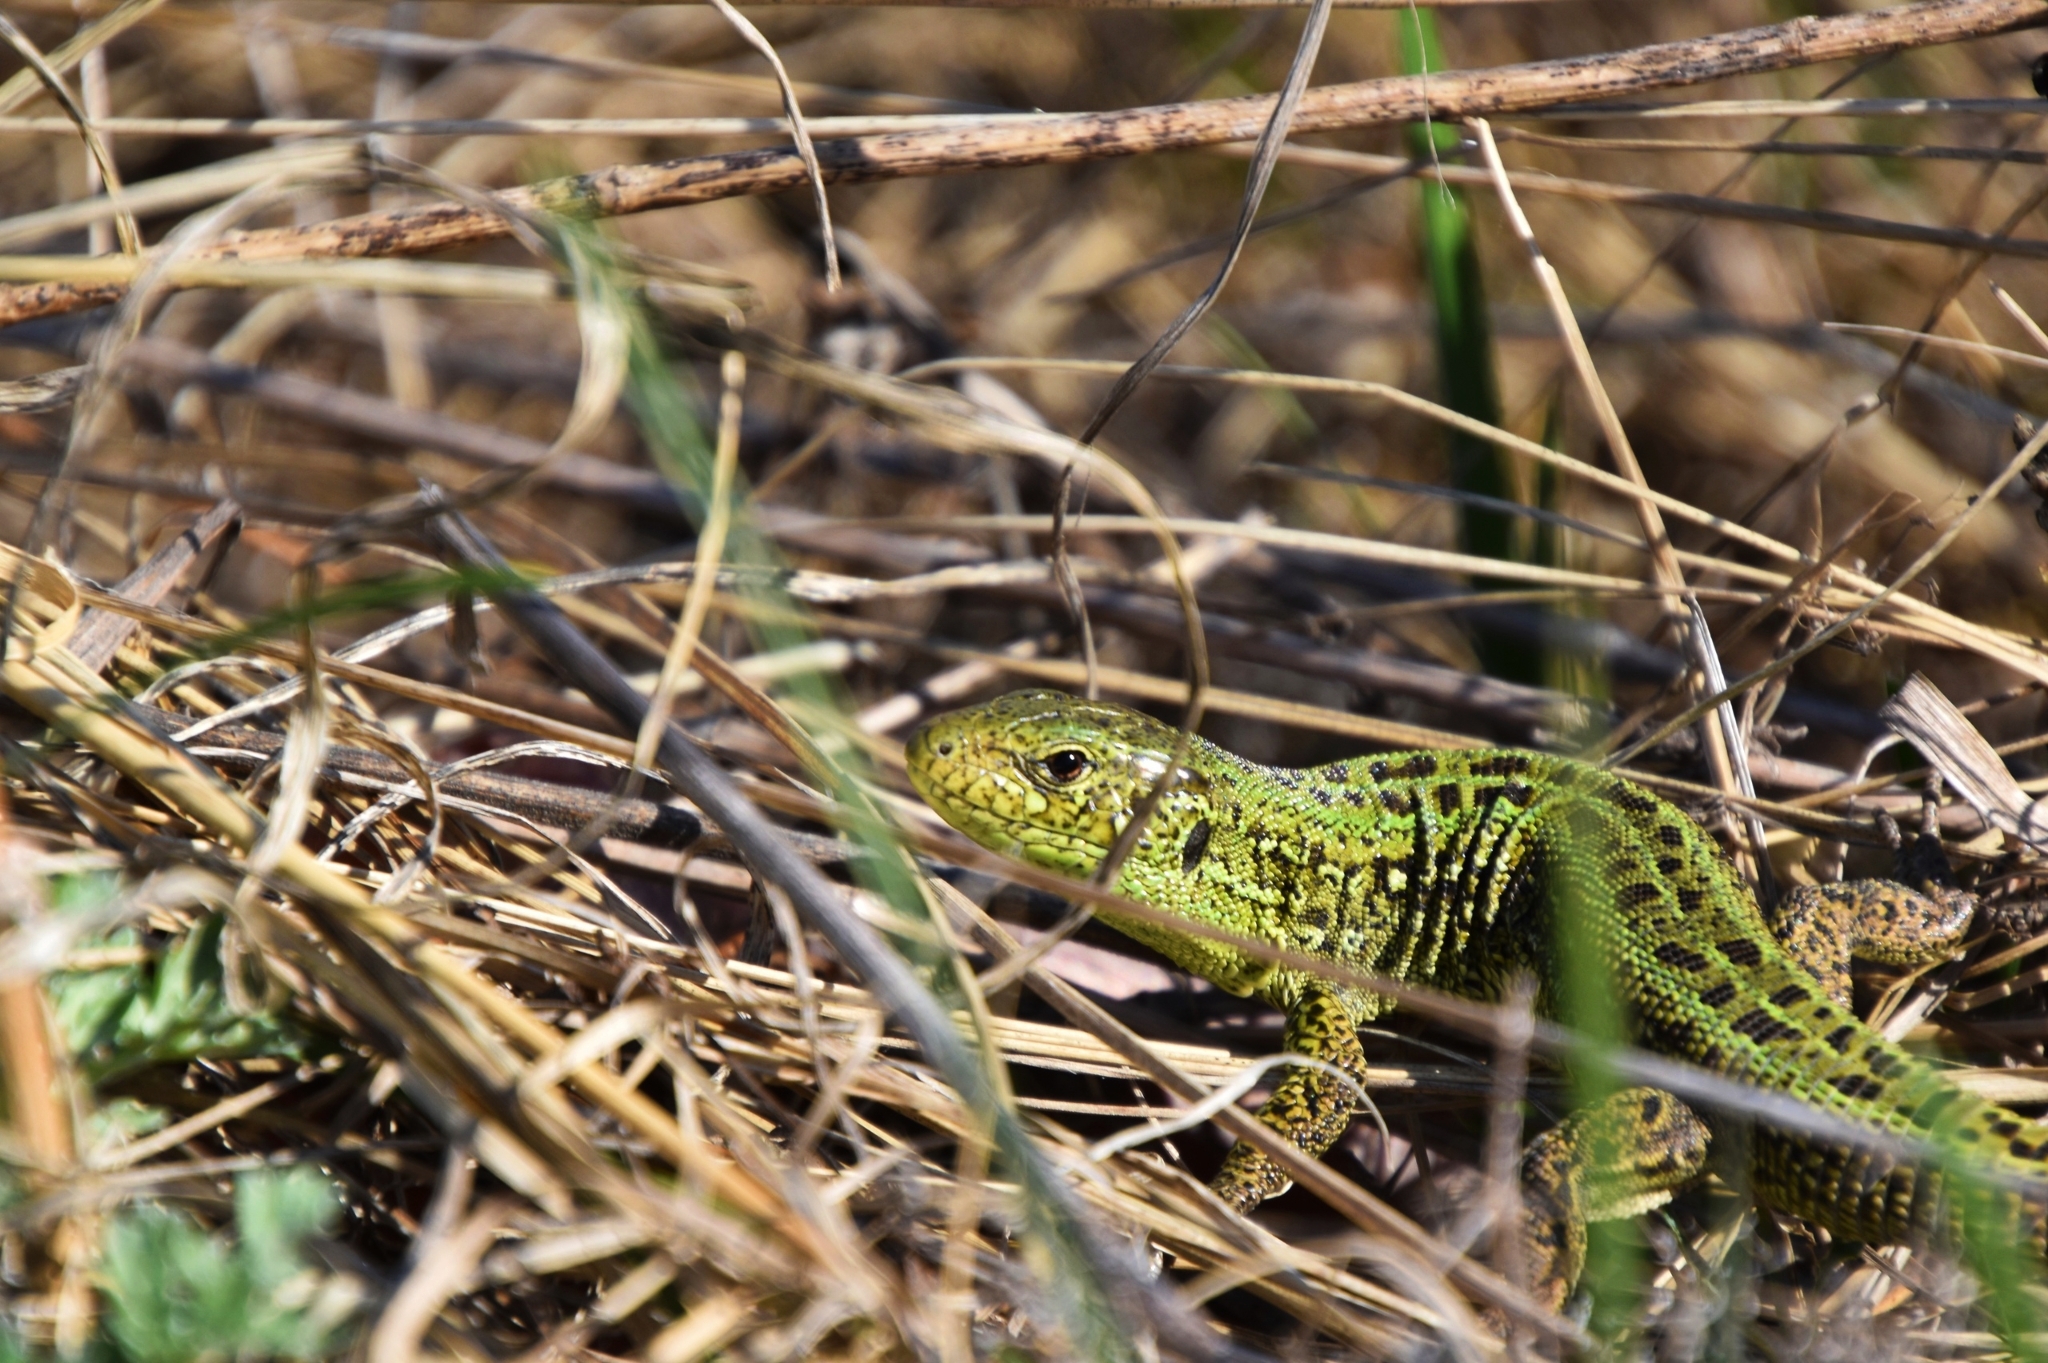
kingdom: Animalia
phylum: Chordata
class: Squamata
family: Lacertidae
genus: Lacerta
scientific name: Lacerta agilis
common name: Sand lizard
